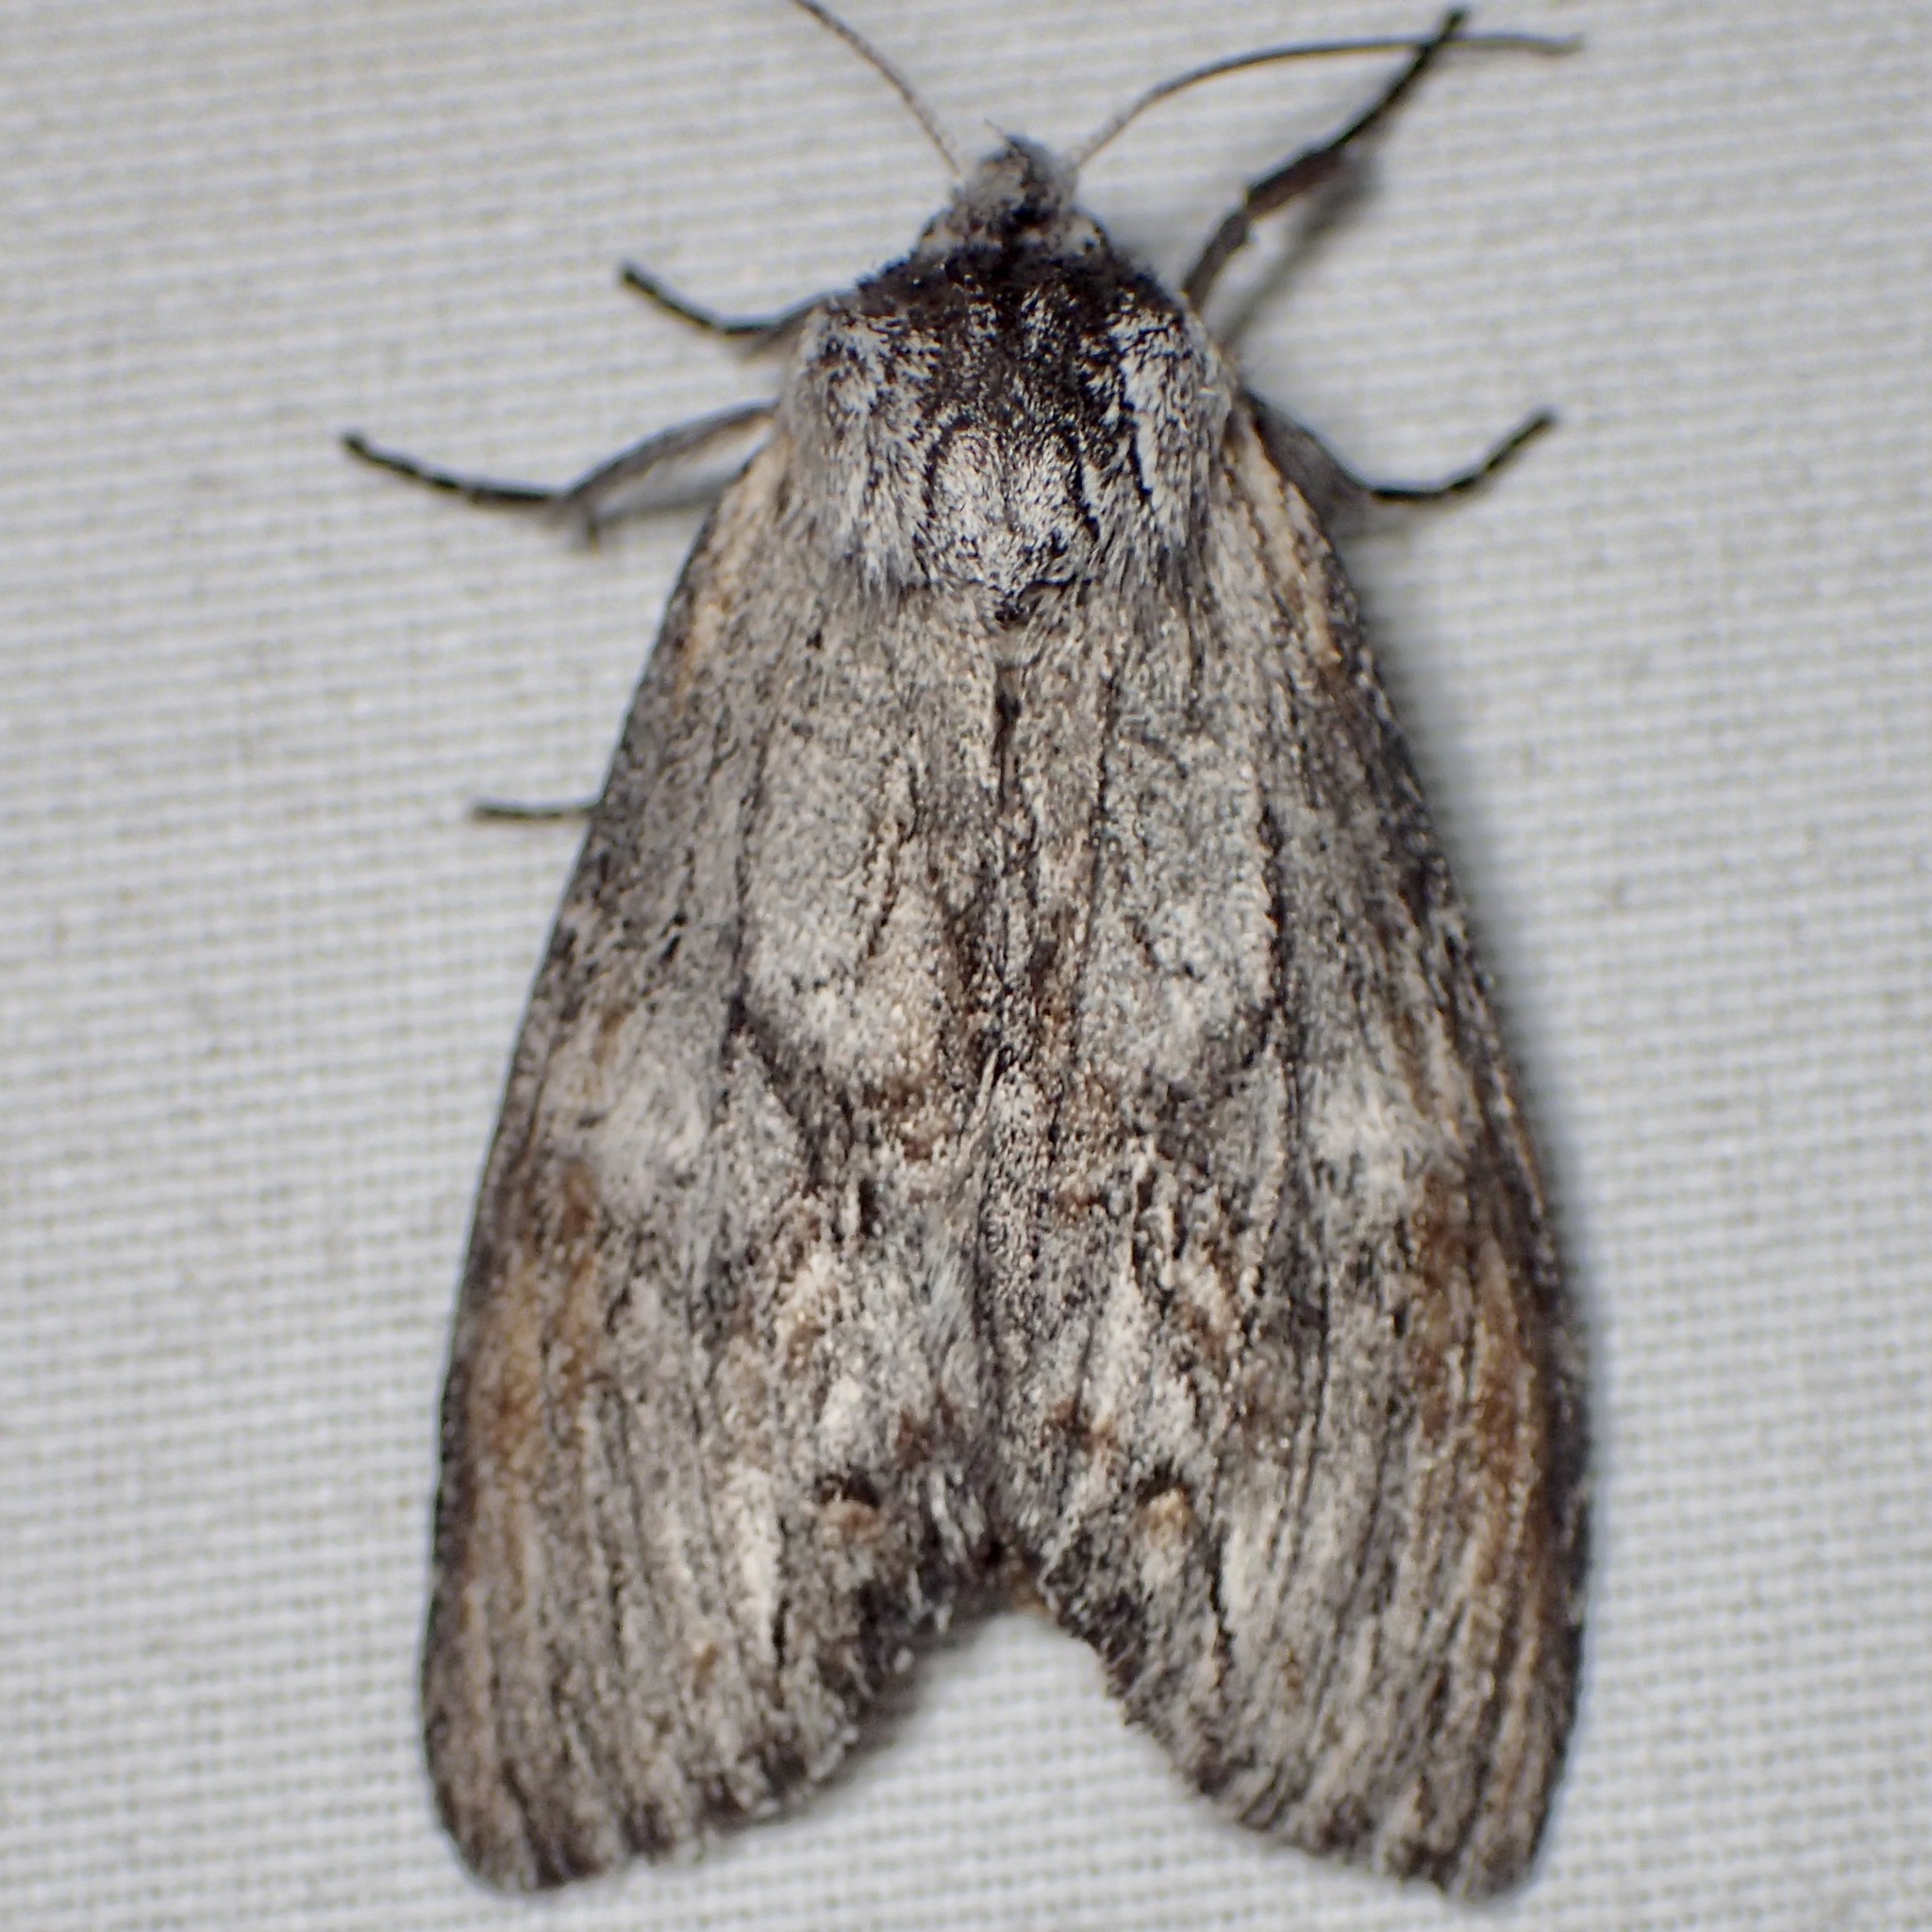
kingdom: Animalia
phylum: Arthropoda
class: Insecta
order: Lepidoptera
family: Notodontidae
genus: Notela
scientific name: Notela jaliscana
